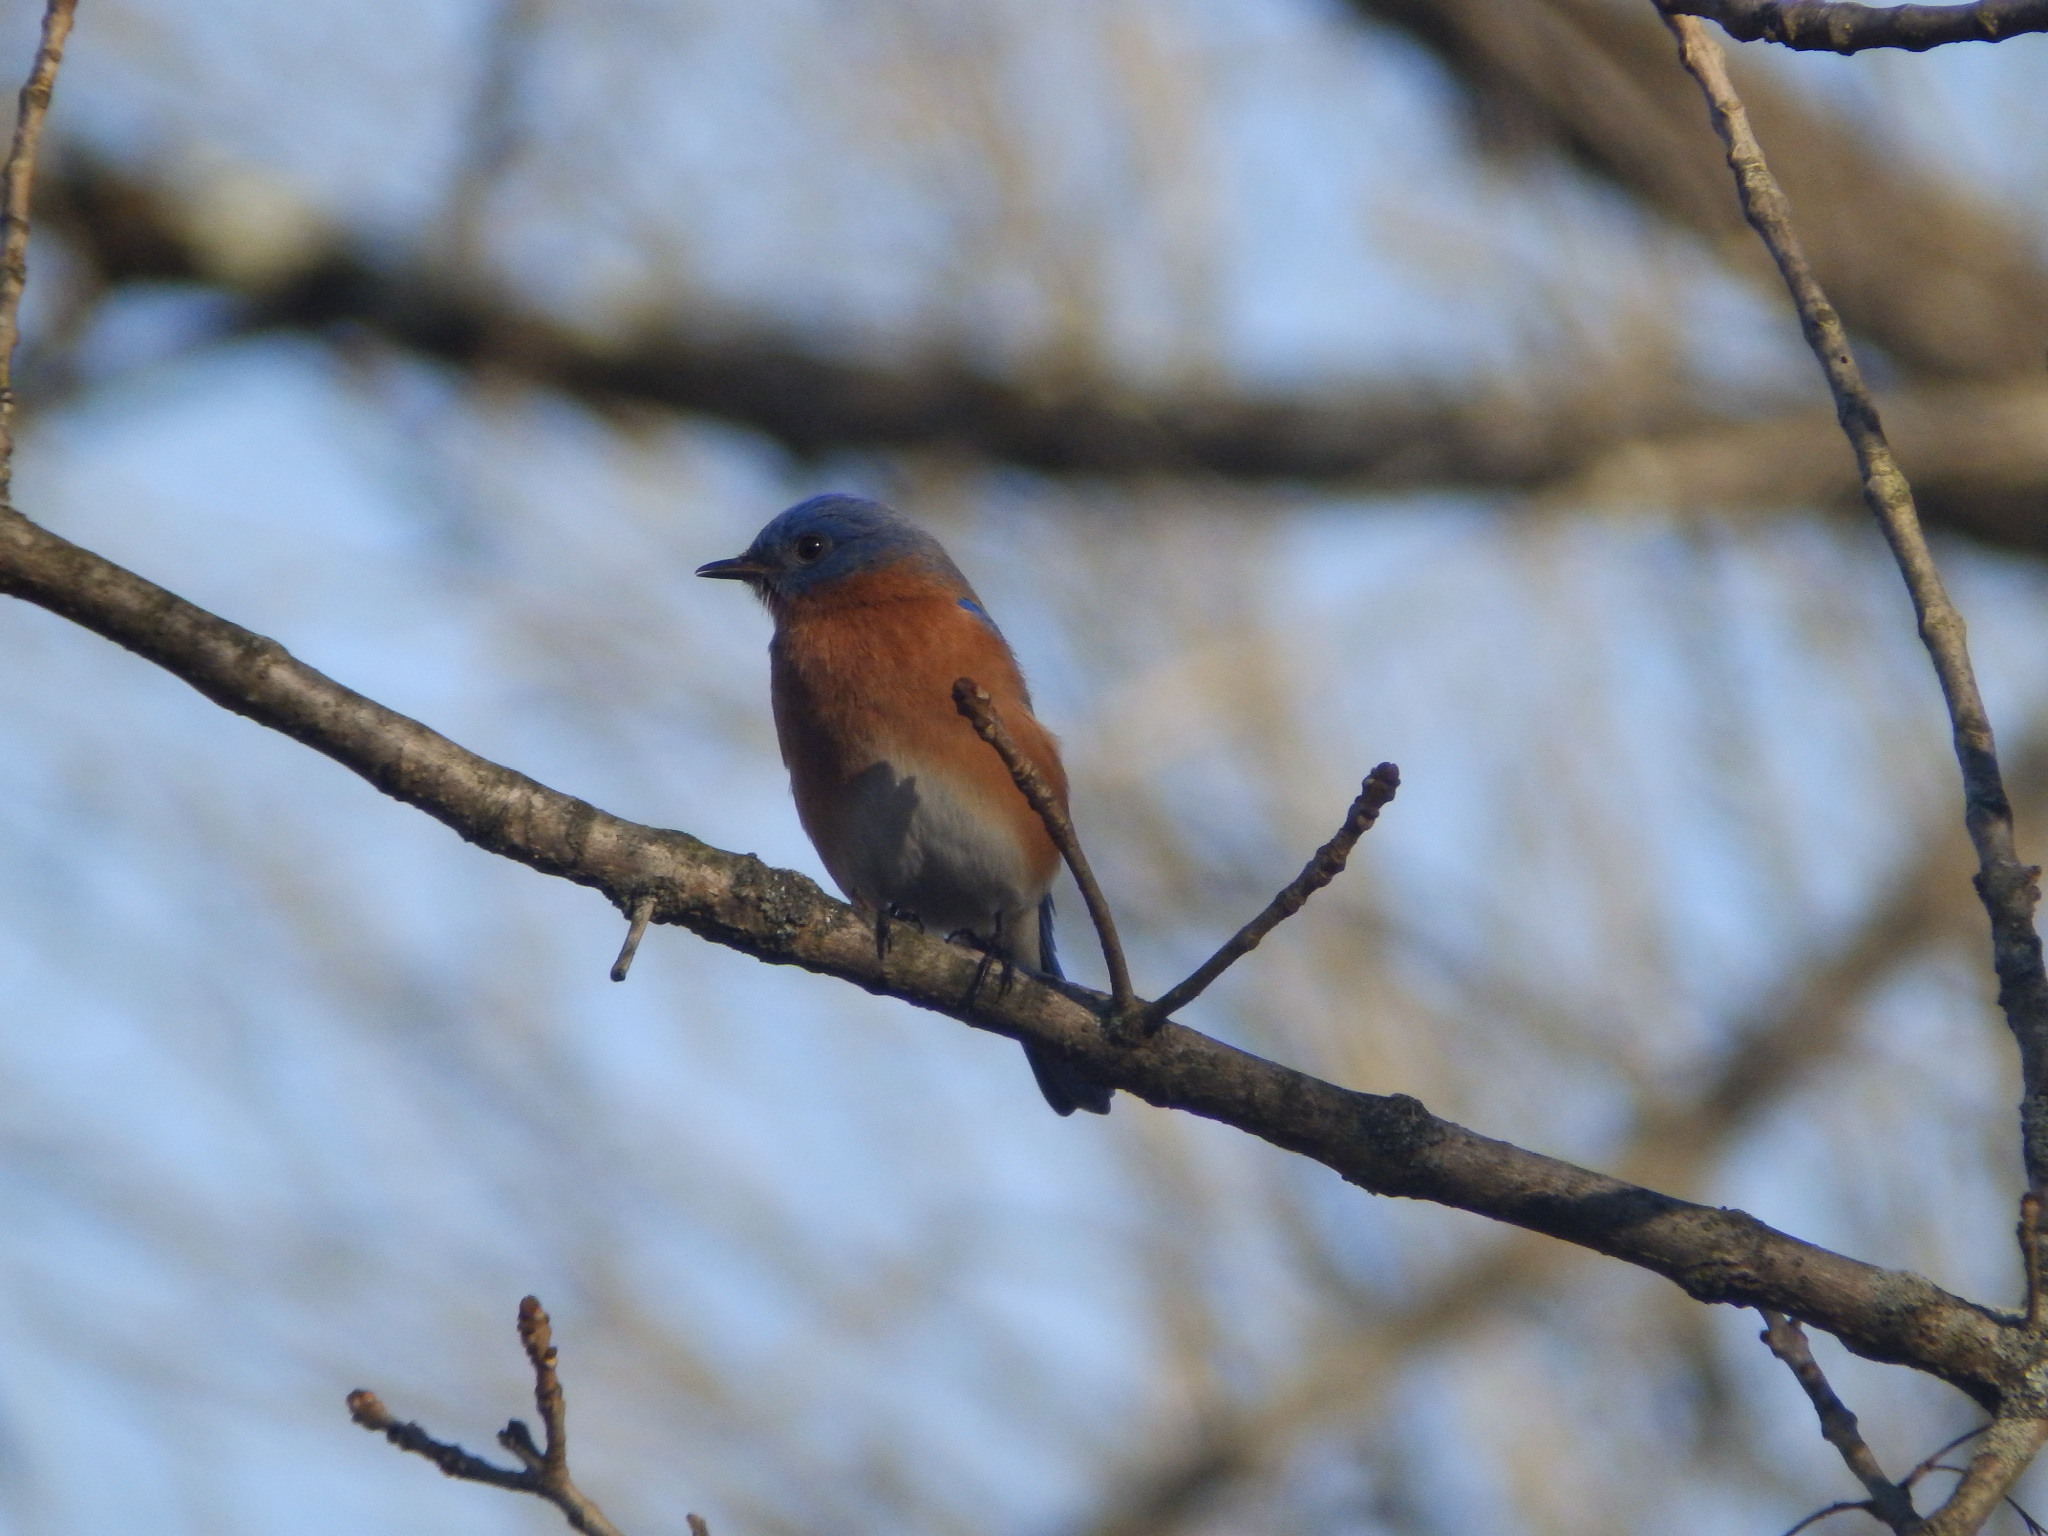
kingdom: Animalia
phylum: Chordata
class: Aves
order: Passeriformes
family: Turdidae
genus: Sialia
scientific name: Sialia sialis
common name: Eastern bluebird
